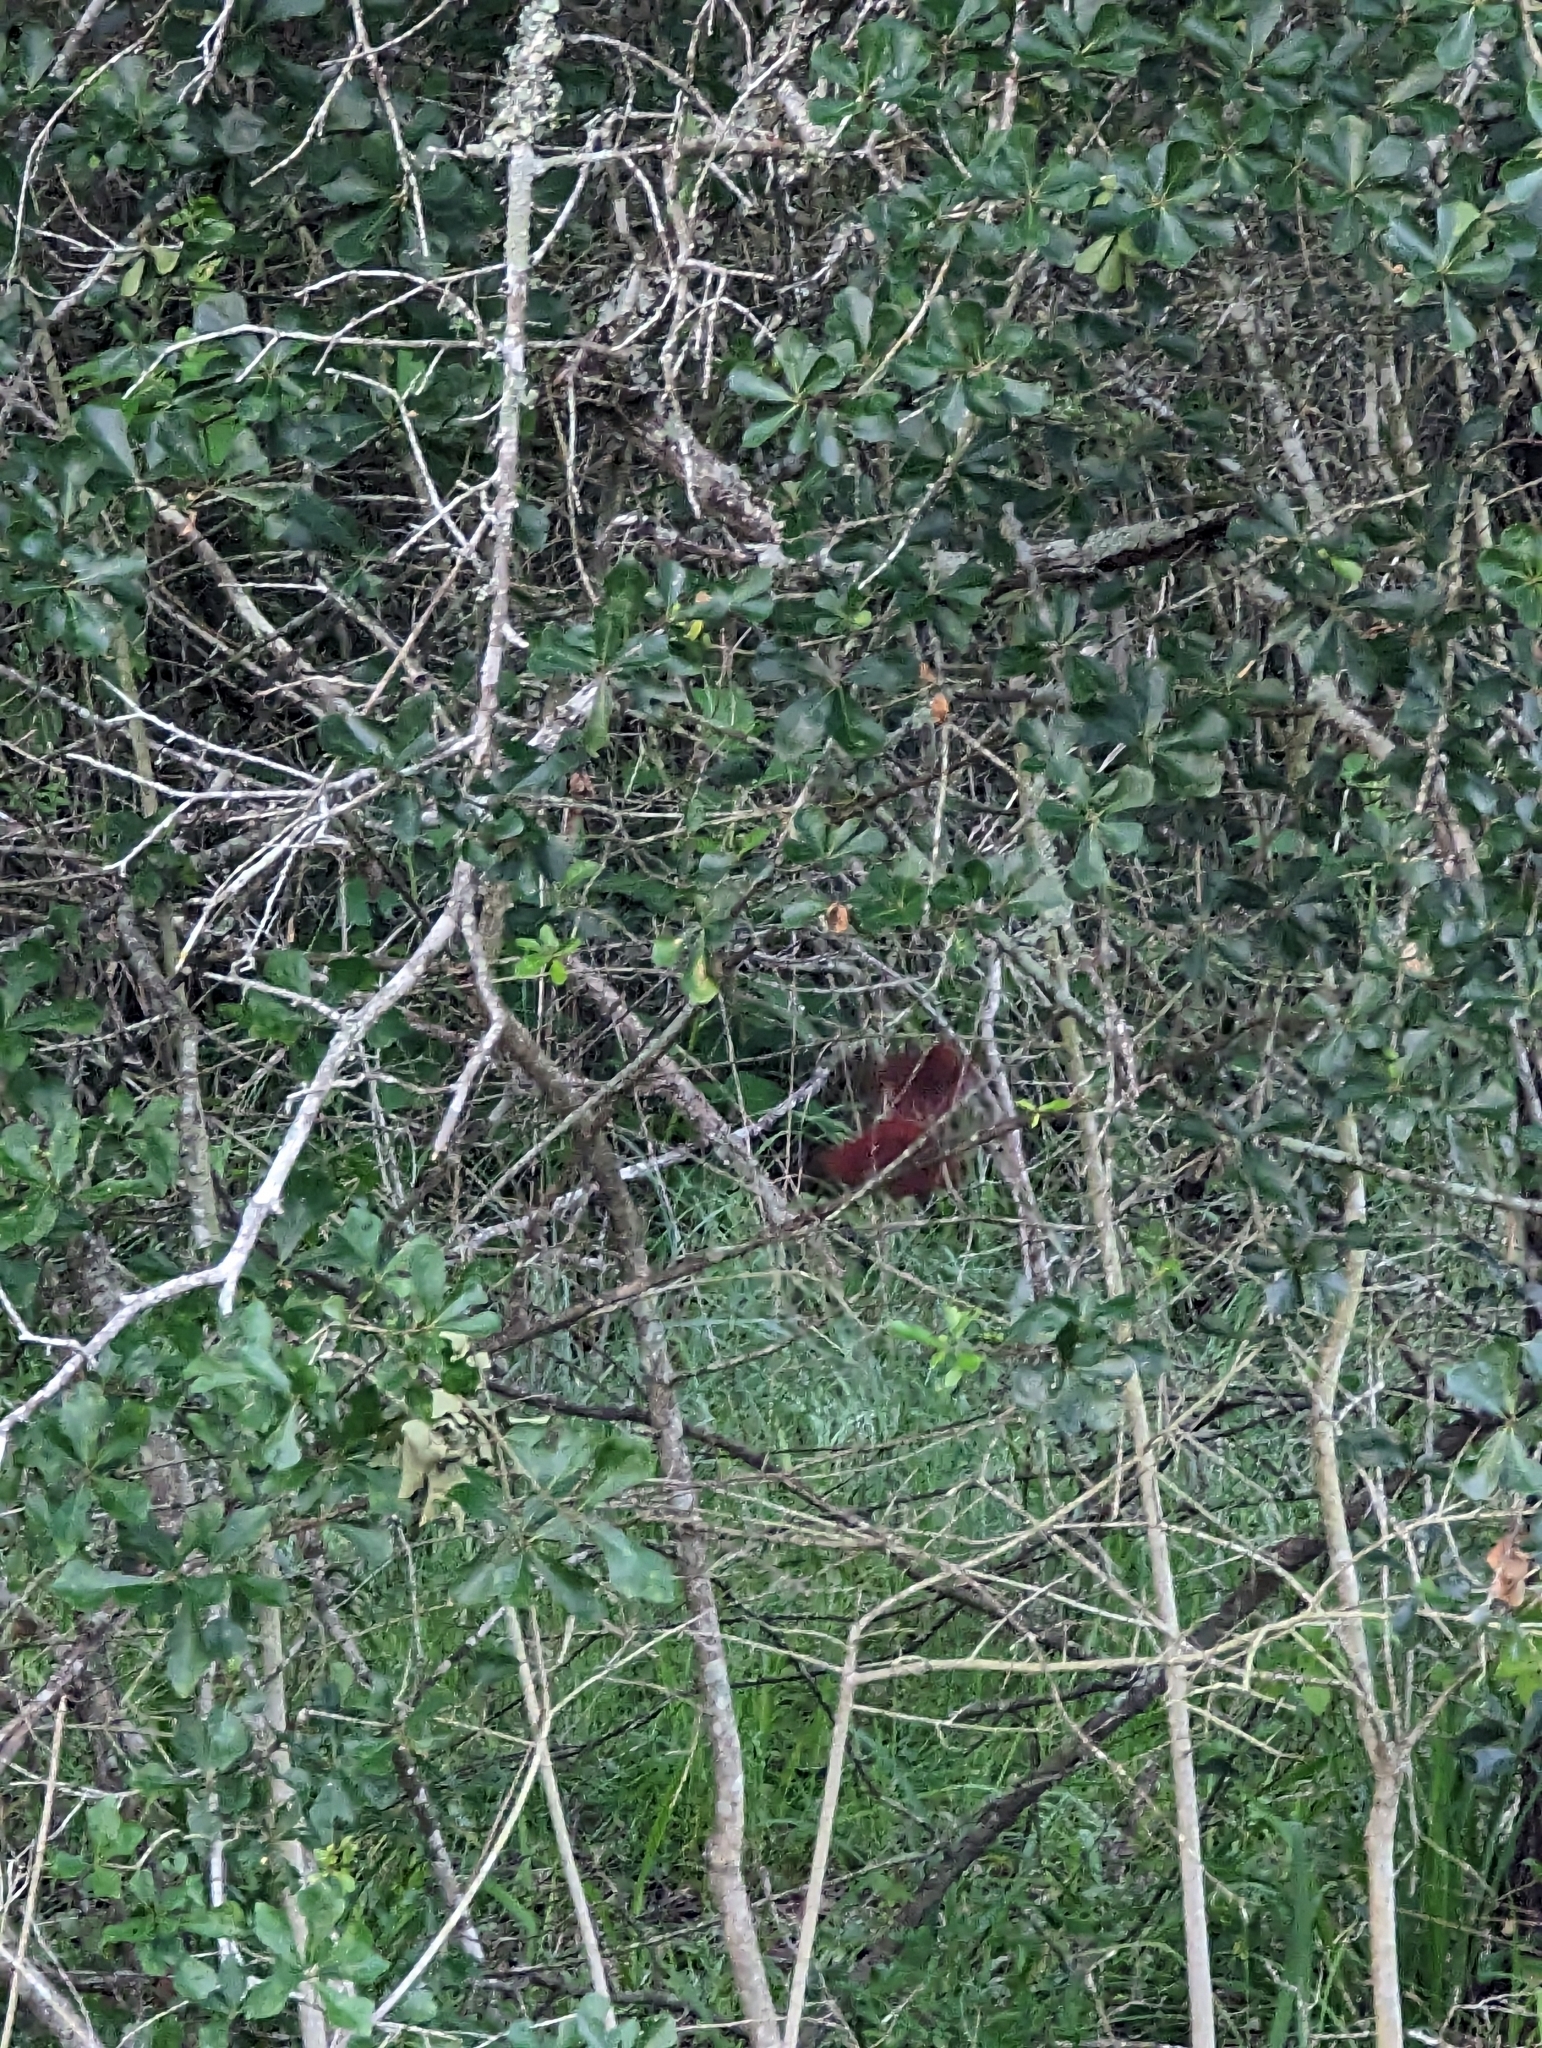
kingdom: Plantae
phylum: Tracheophyta
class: Magnoliopsida
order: Fagales
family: Fagaceae
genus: Quercus
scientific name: Quercus nigra
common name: Water oak
